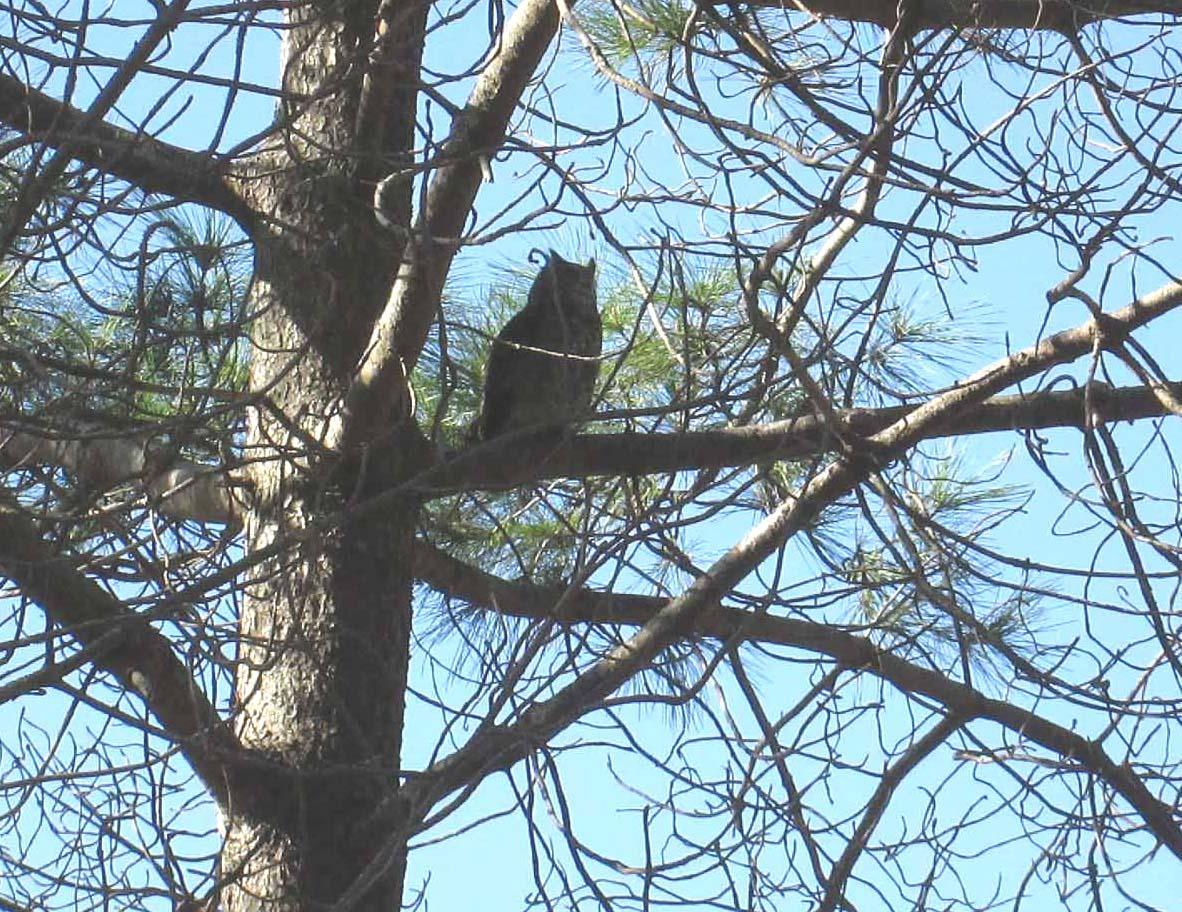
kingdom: Animalia
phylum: Chordata
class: Aves
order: Strigiformes
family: Strigidae
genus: Bubo
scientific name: Bubo africanus
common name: Spotted eagle-owl
